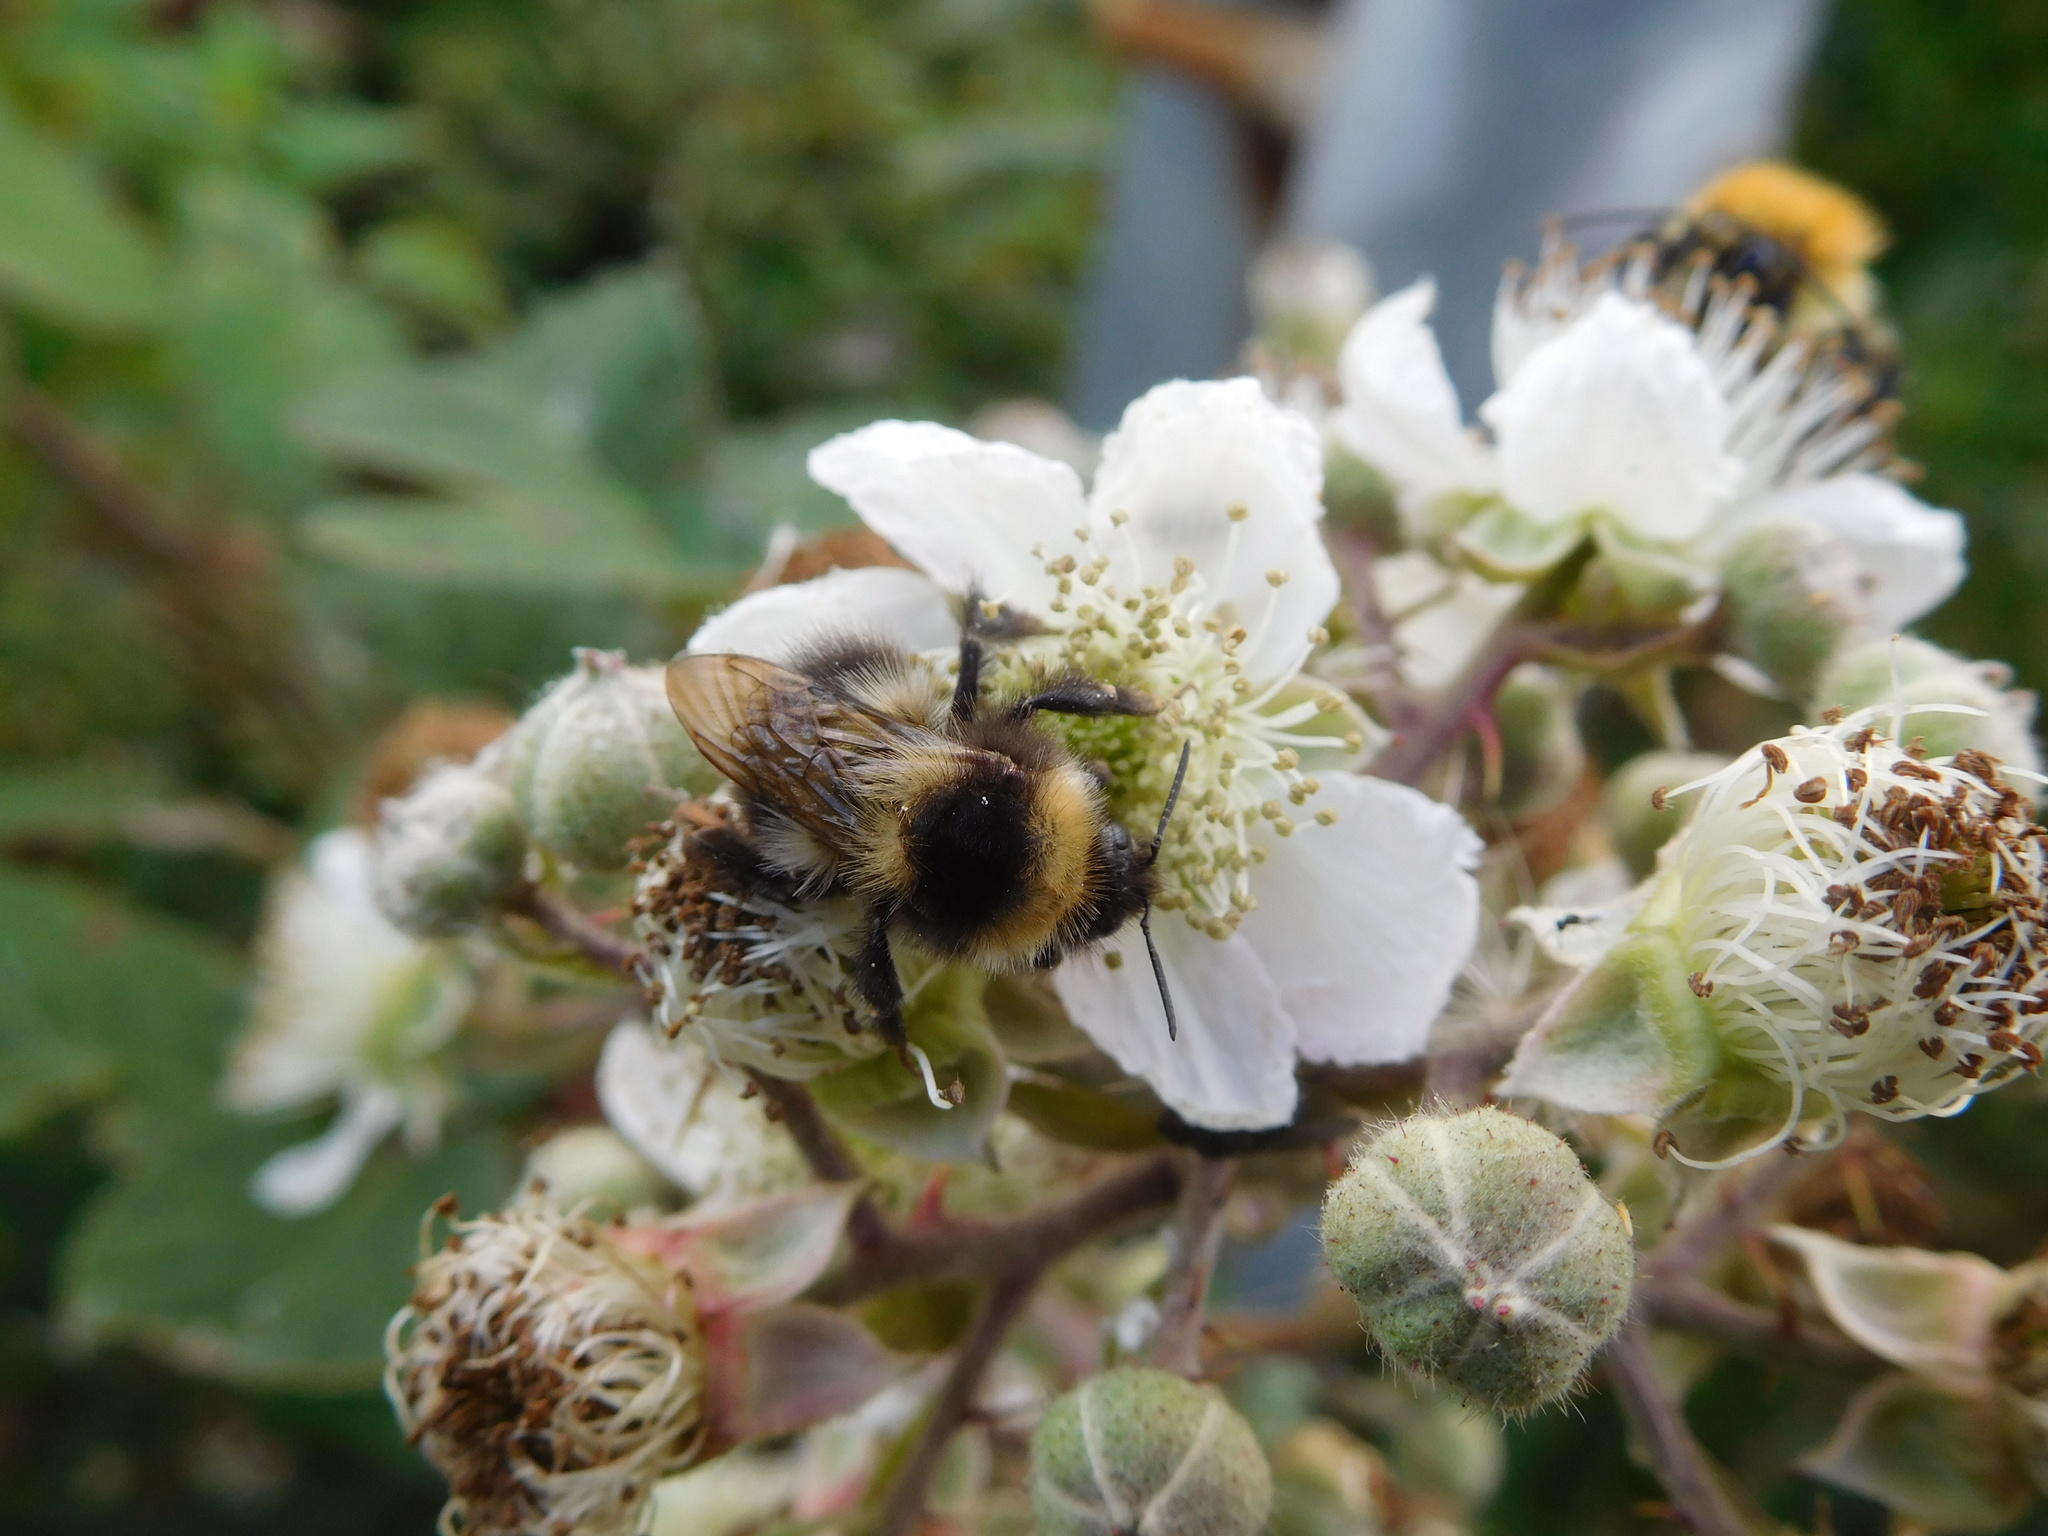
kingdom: Animalia
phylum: Arthropoda
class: Insecta
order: Hymenoptera
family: Apidae
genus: Bombus
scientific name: Bombus hortorum
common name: Garden bumblebee
